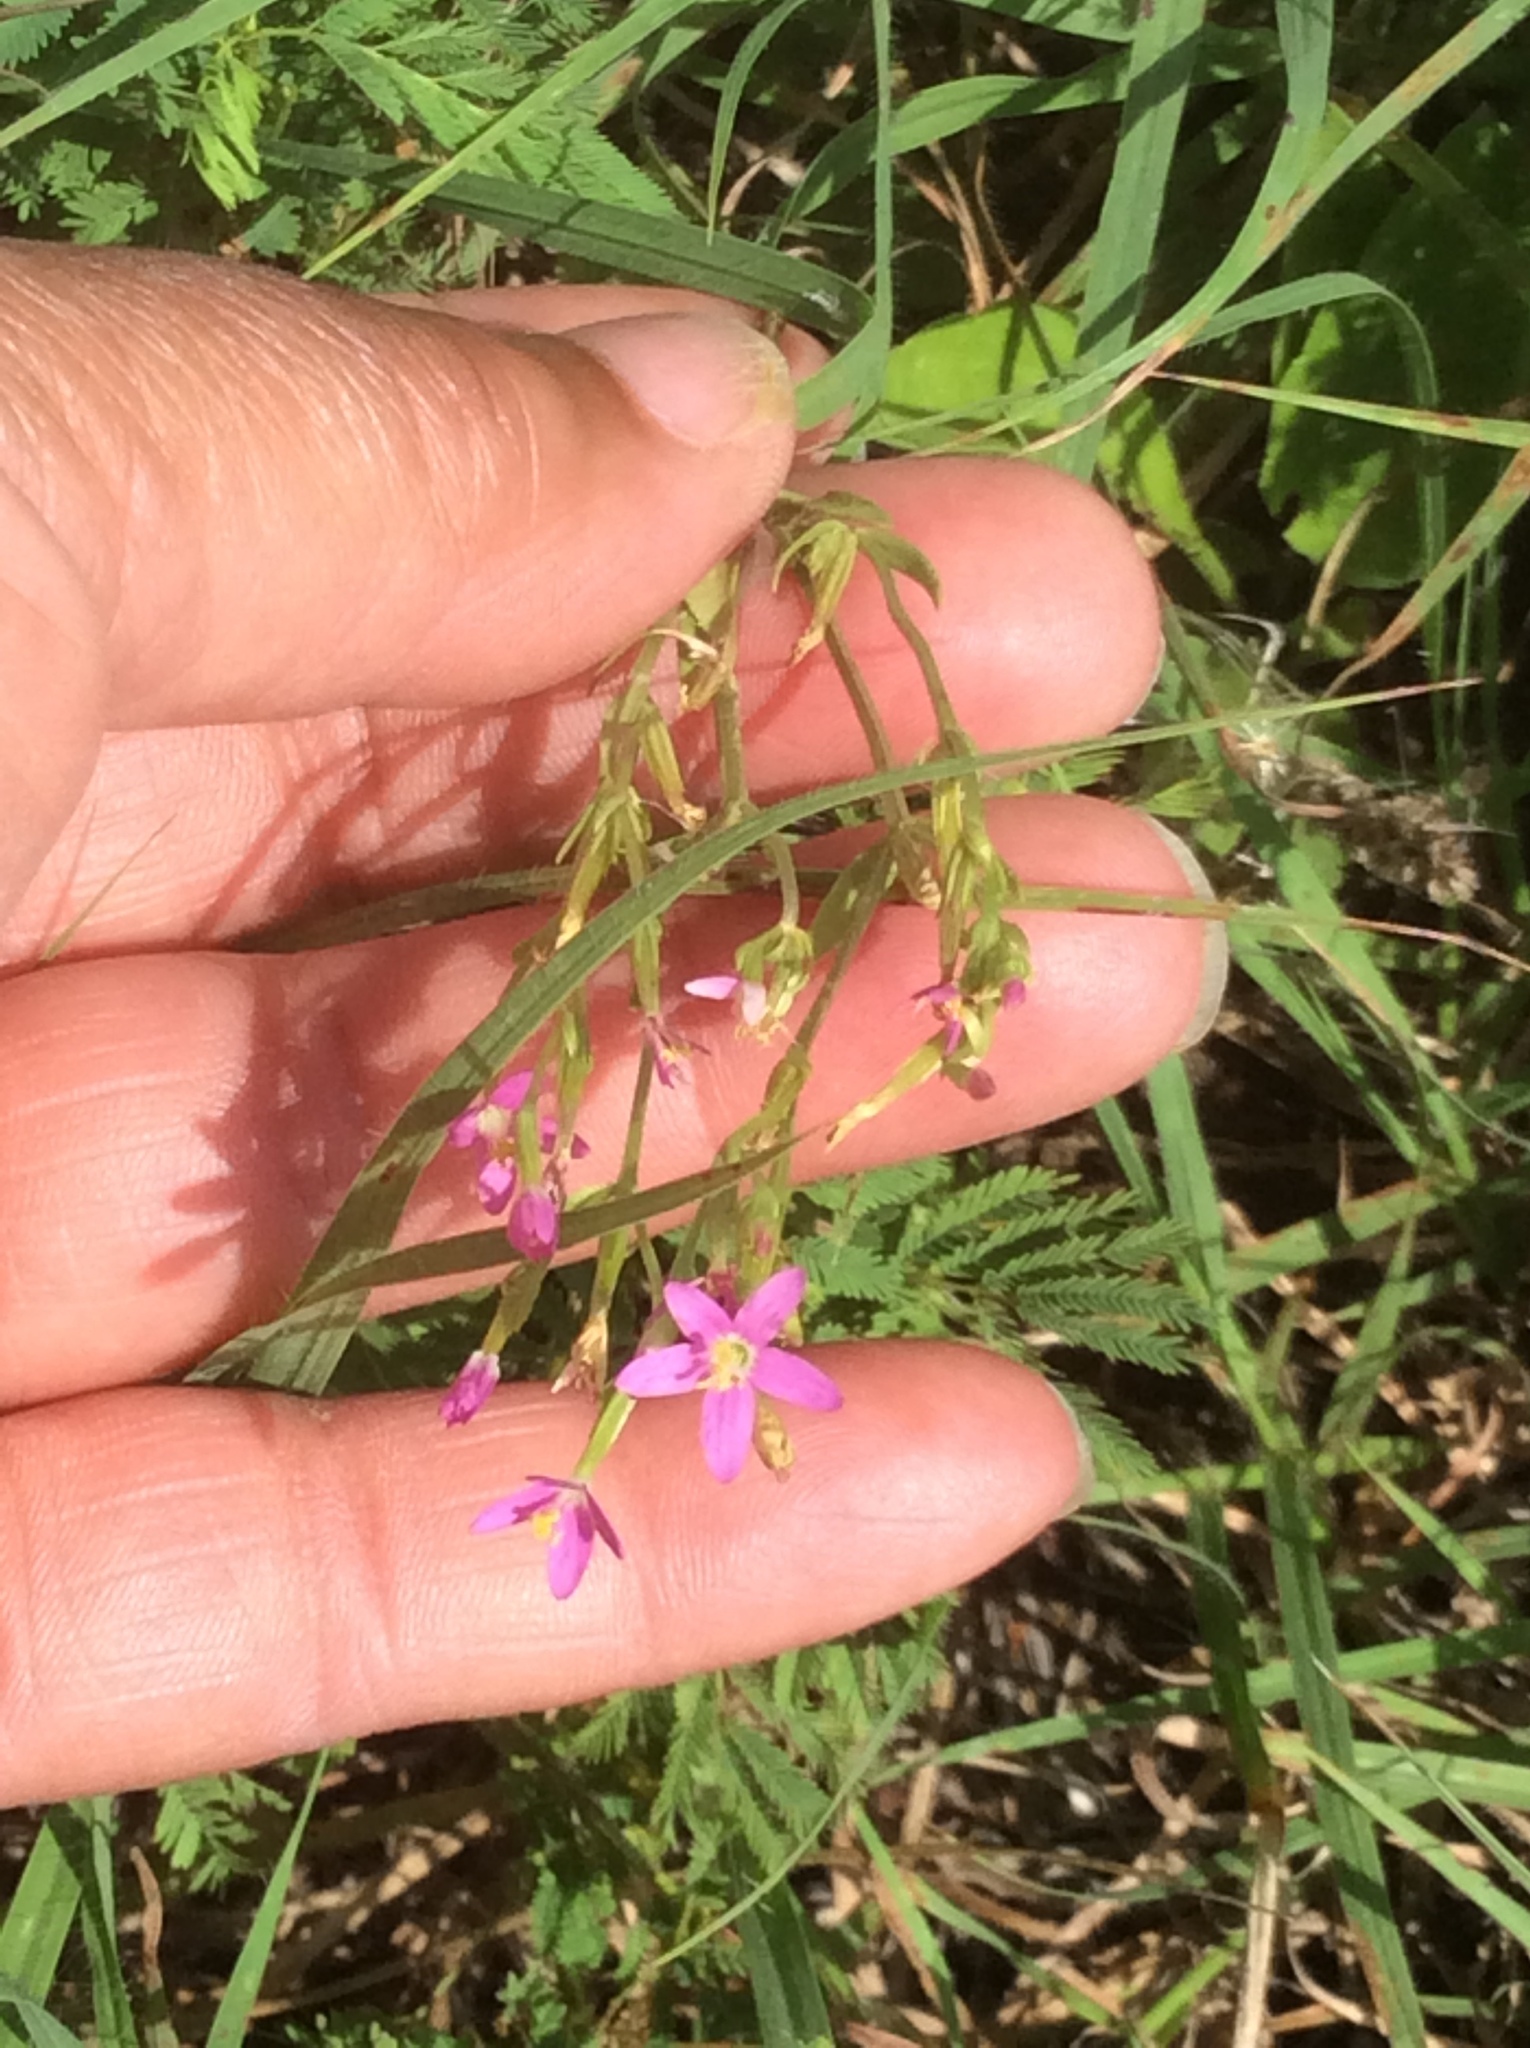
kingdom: Plantae
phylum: Tracheophyta
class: Magnoliopsida
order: Gentianales
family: Gentianaceae
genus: Sabatia
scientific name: Sabatia campestris
